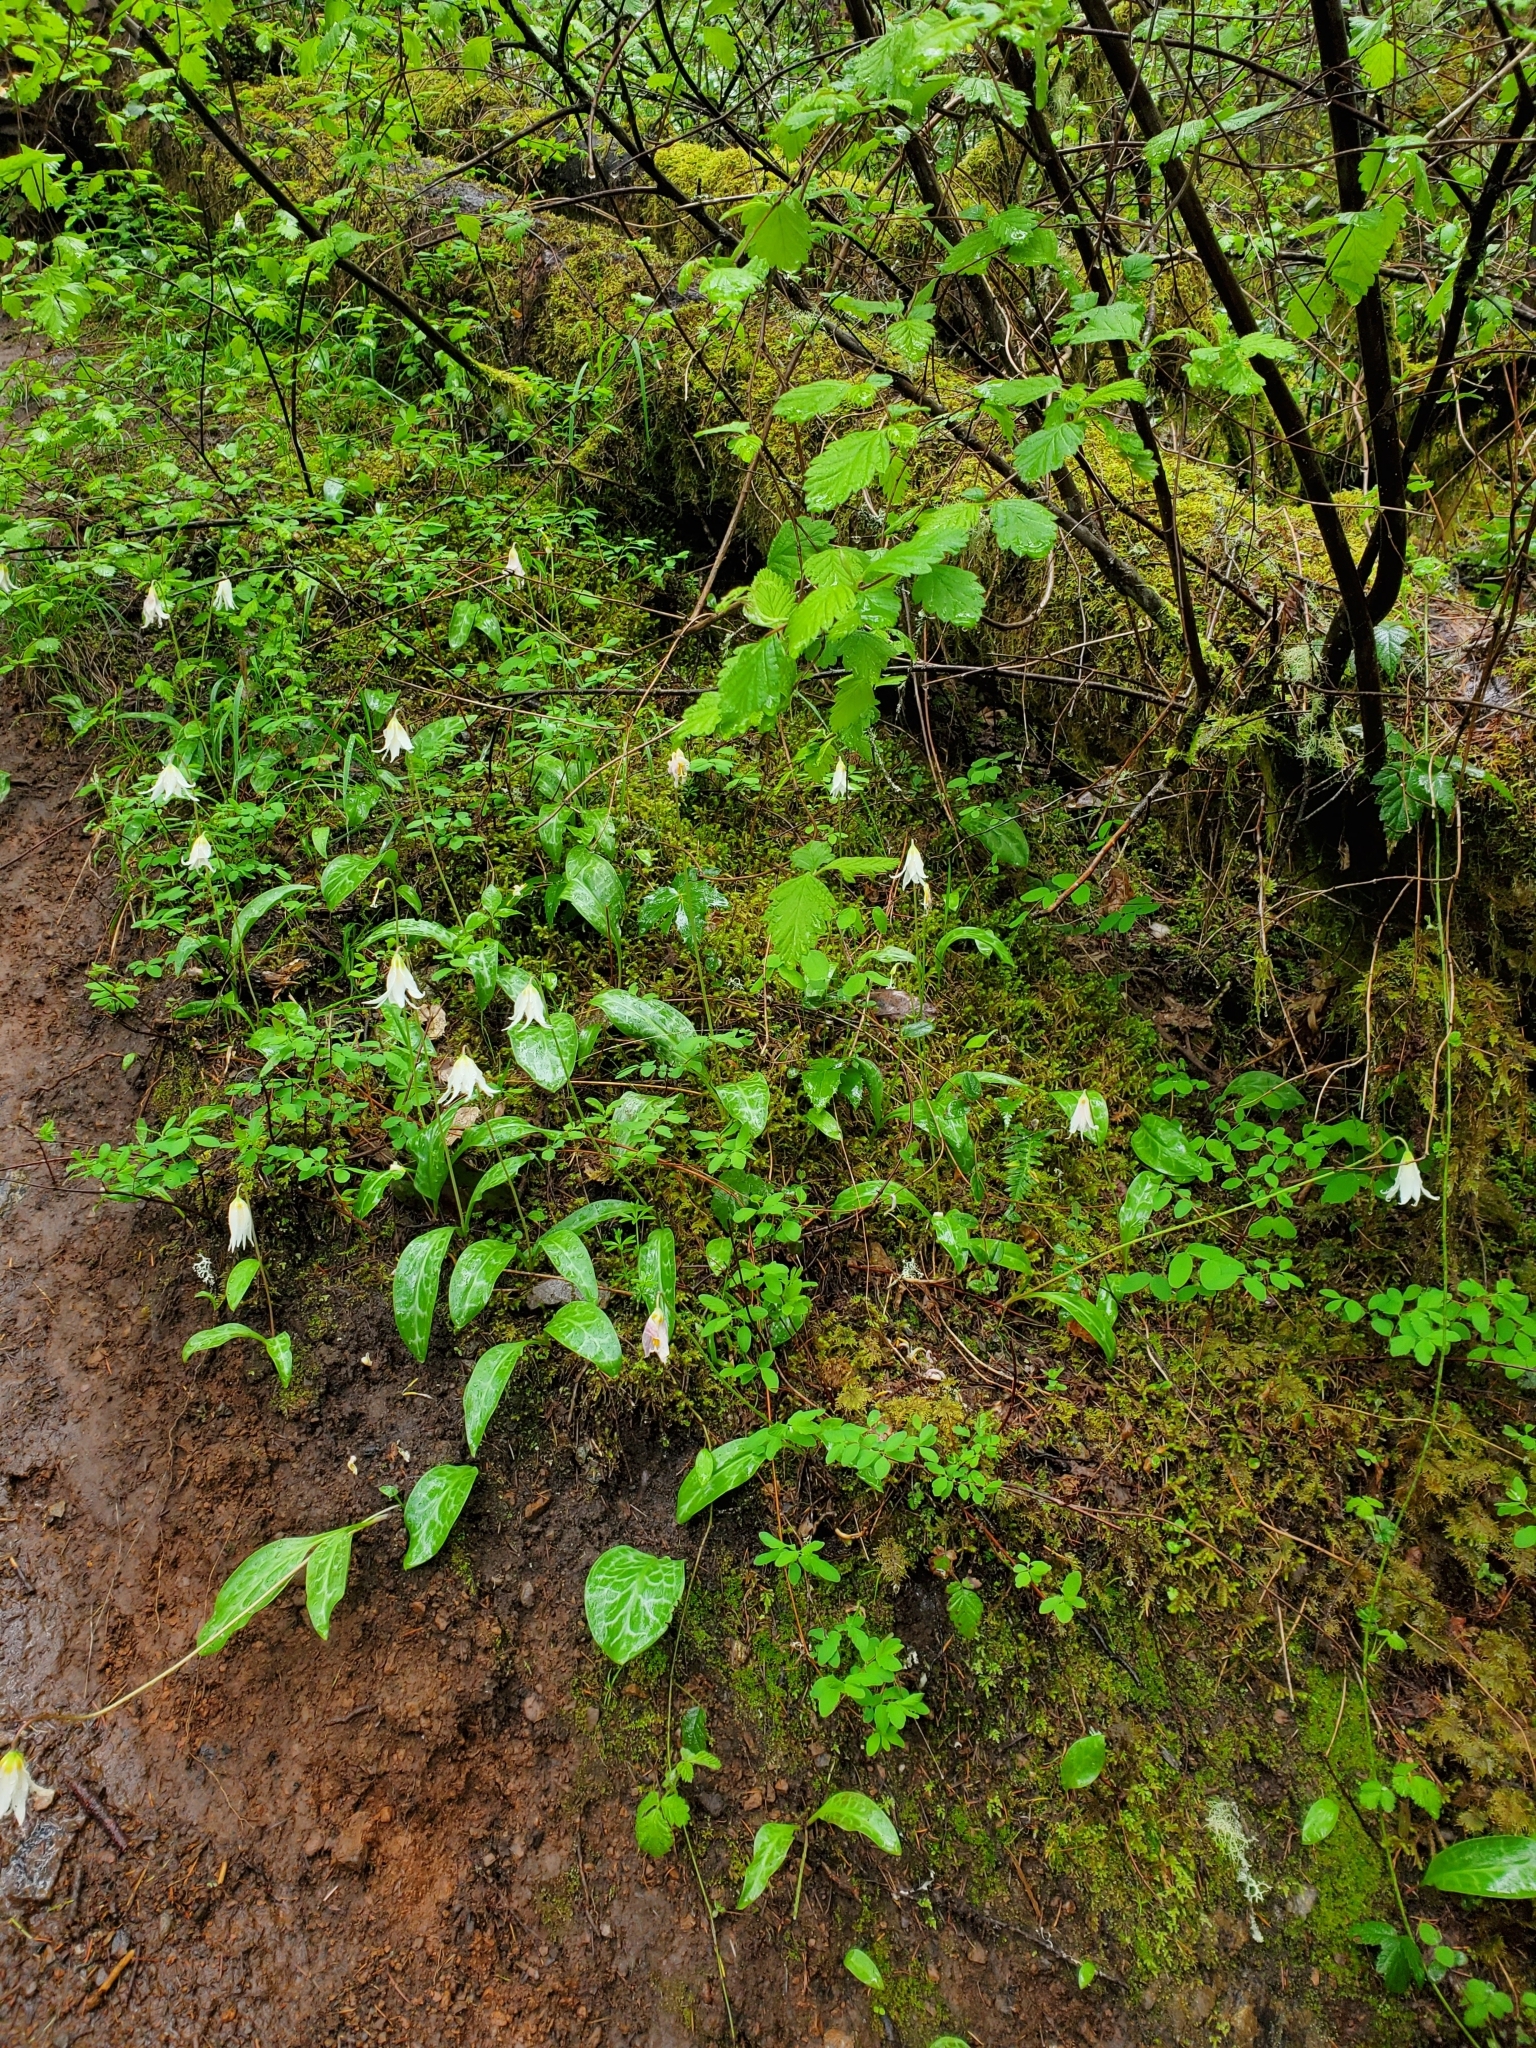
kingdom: Plantae
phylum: Tracheophyta
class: Liliopsida
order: Liliales
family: Liliaceae
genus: Erythronium
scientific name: Erythronium oregonum
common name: Giant adder's-tongue
